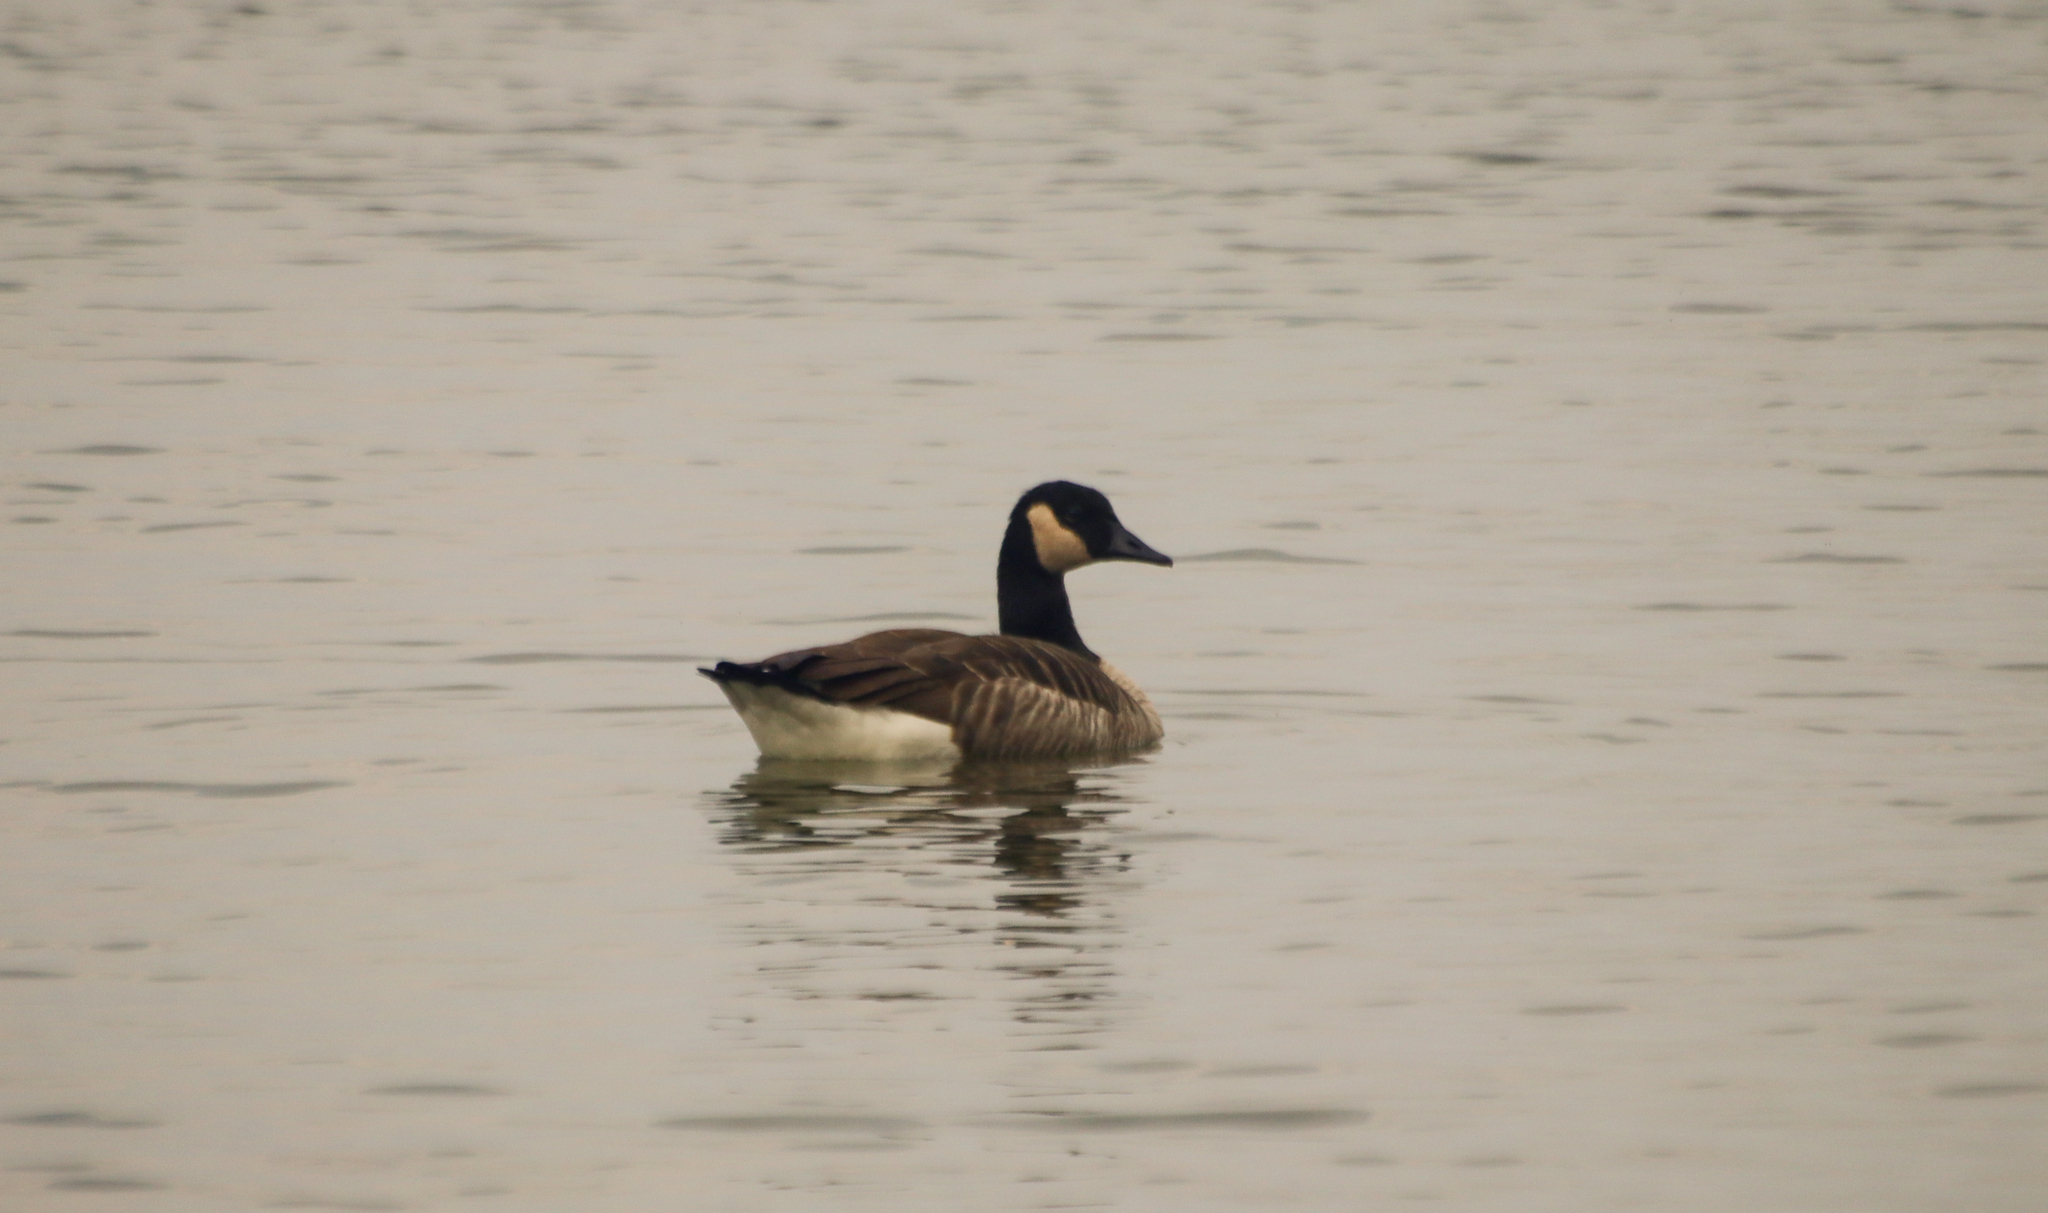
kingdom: Animalia
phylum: Chordata
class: Aves
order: Anseriformes
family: Anatidae
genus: Branta
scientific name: Branta canadensis
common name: Canada goose
